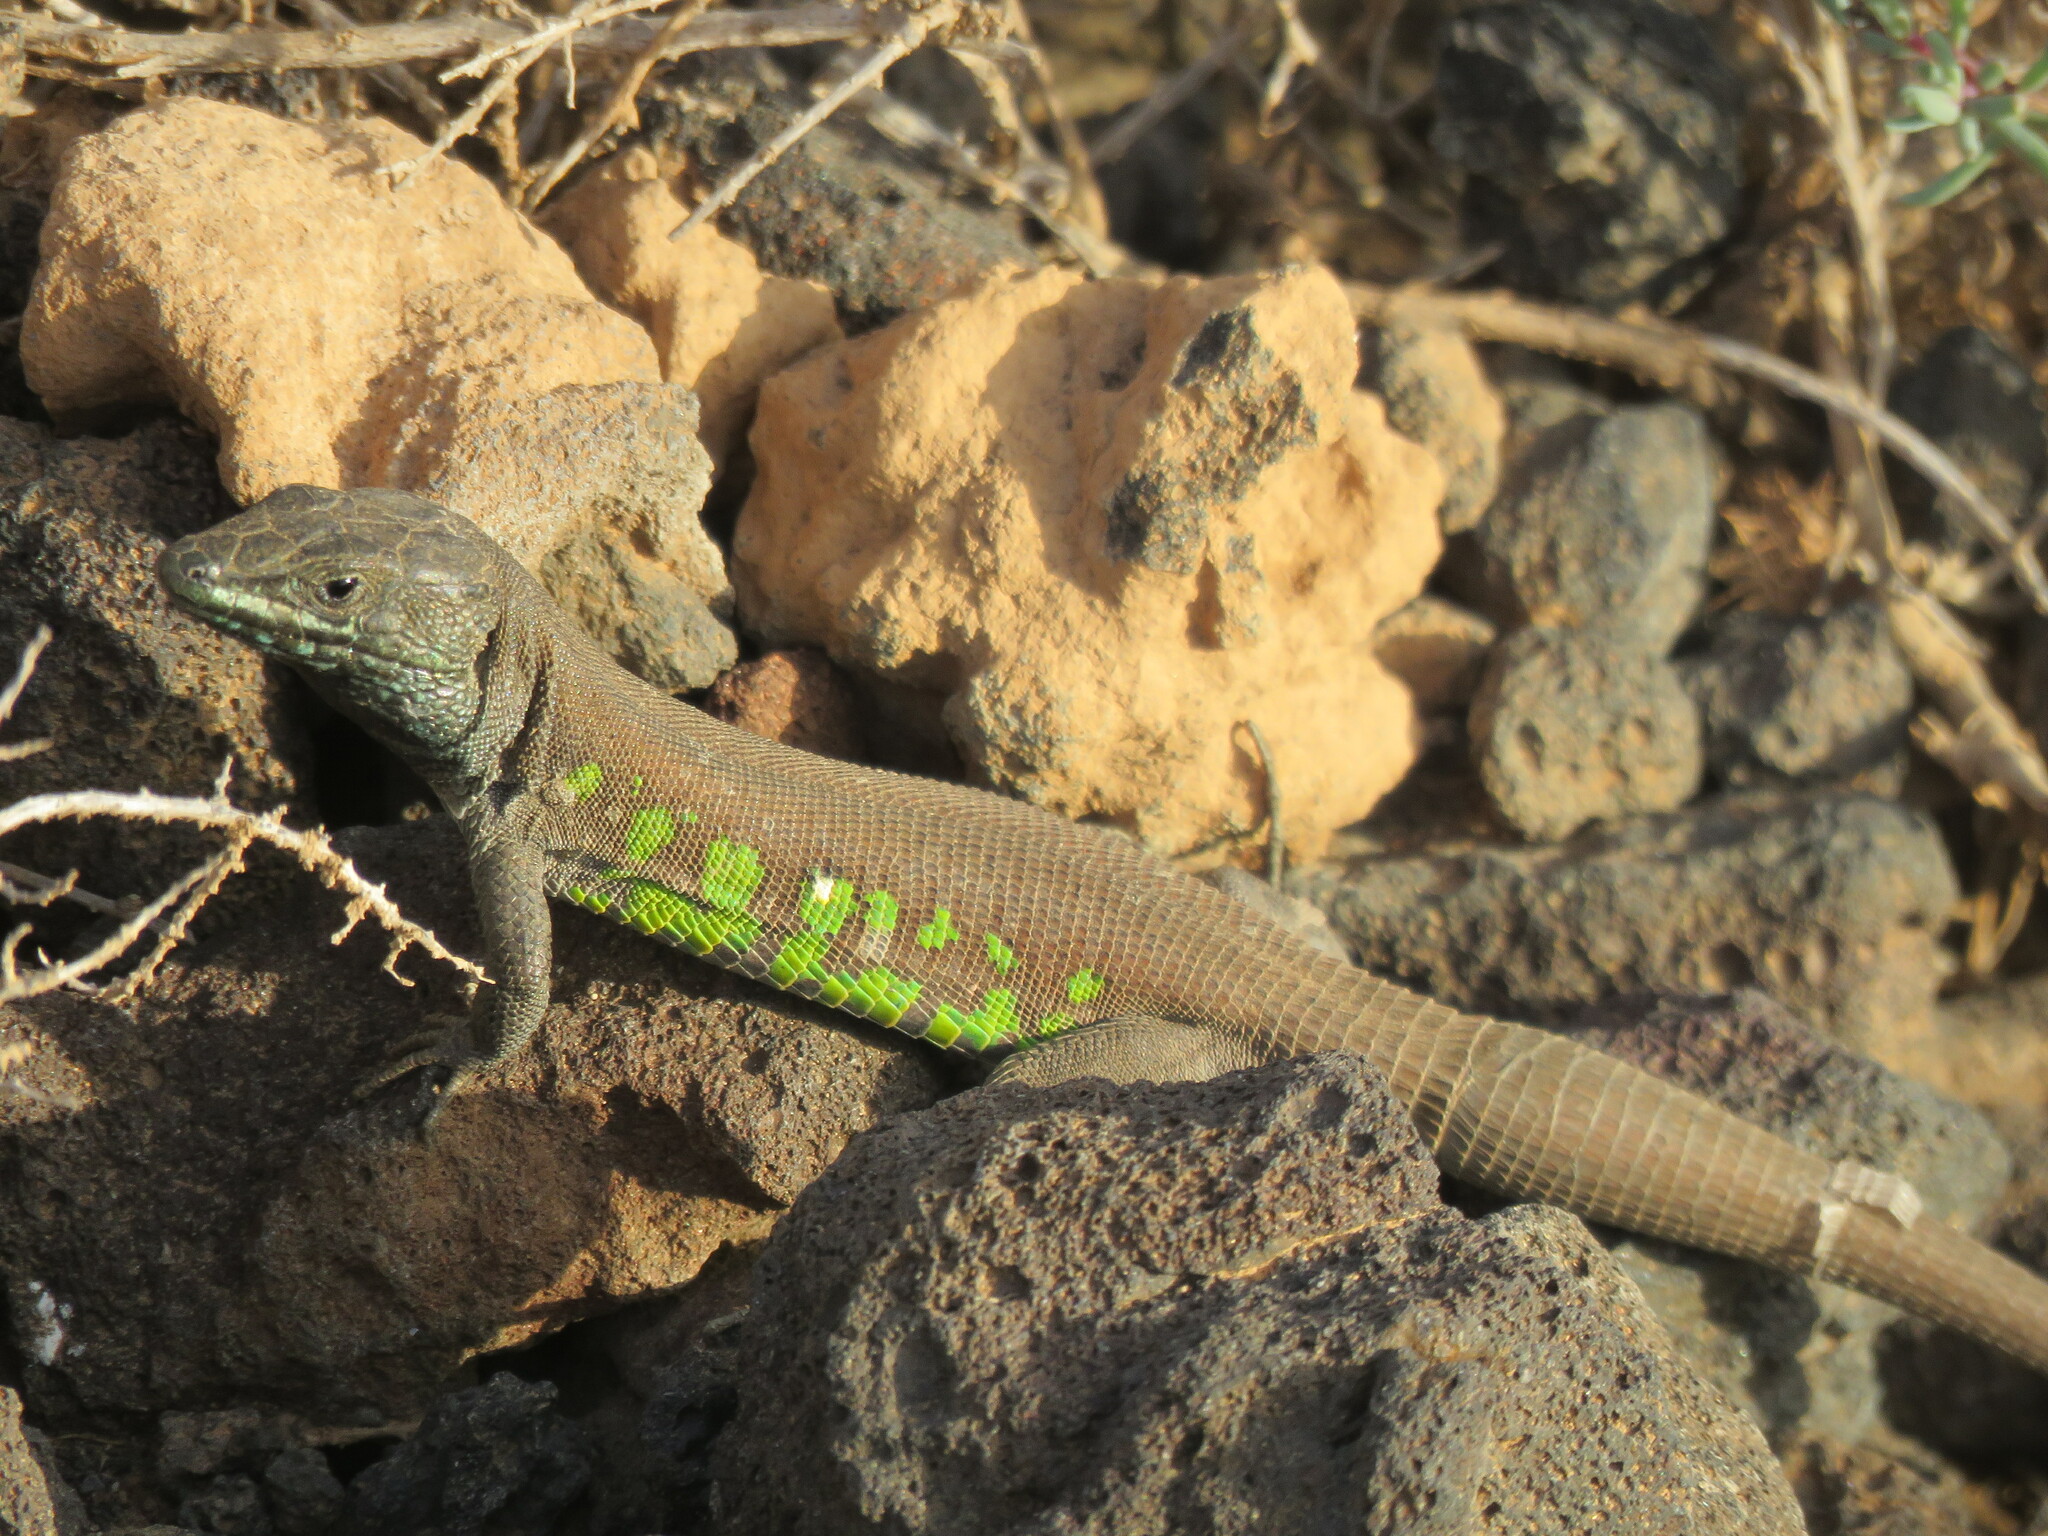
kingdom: Animalia
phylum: Chordata
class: Squamata
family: Lacertidae
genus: Gallotia
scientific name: Gallotia atlantica
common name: Atlantic lizard
